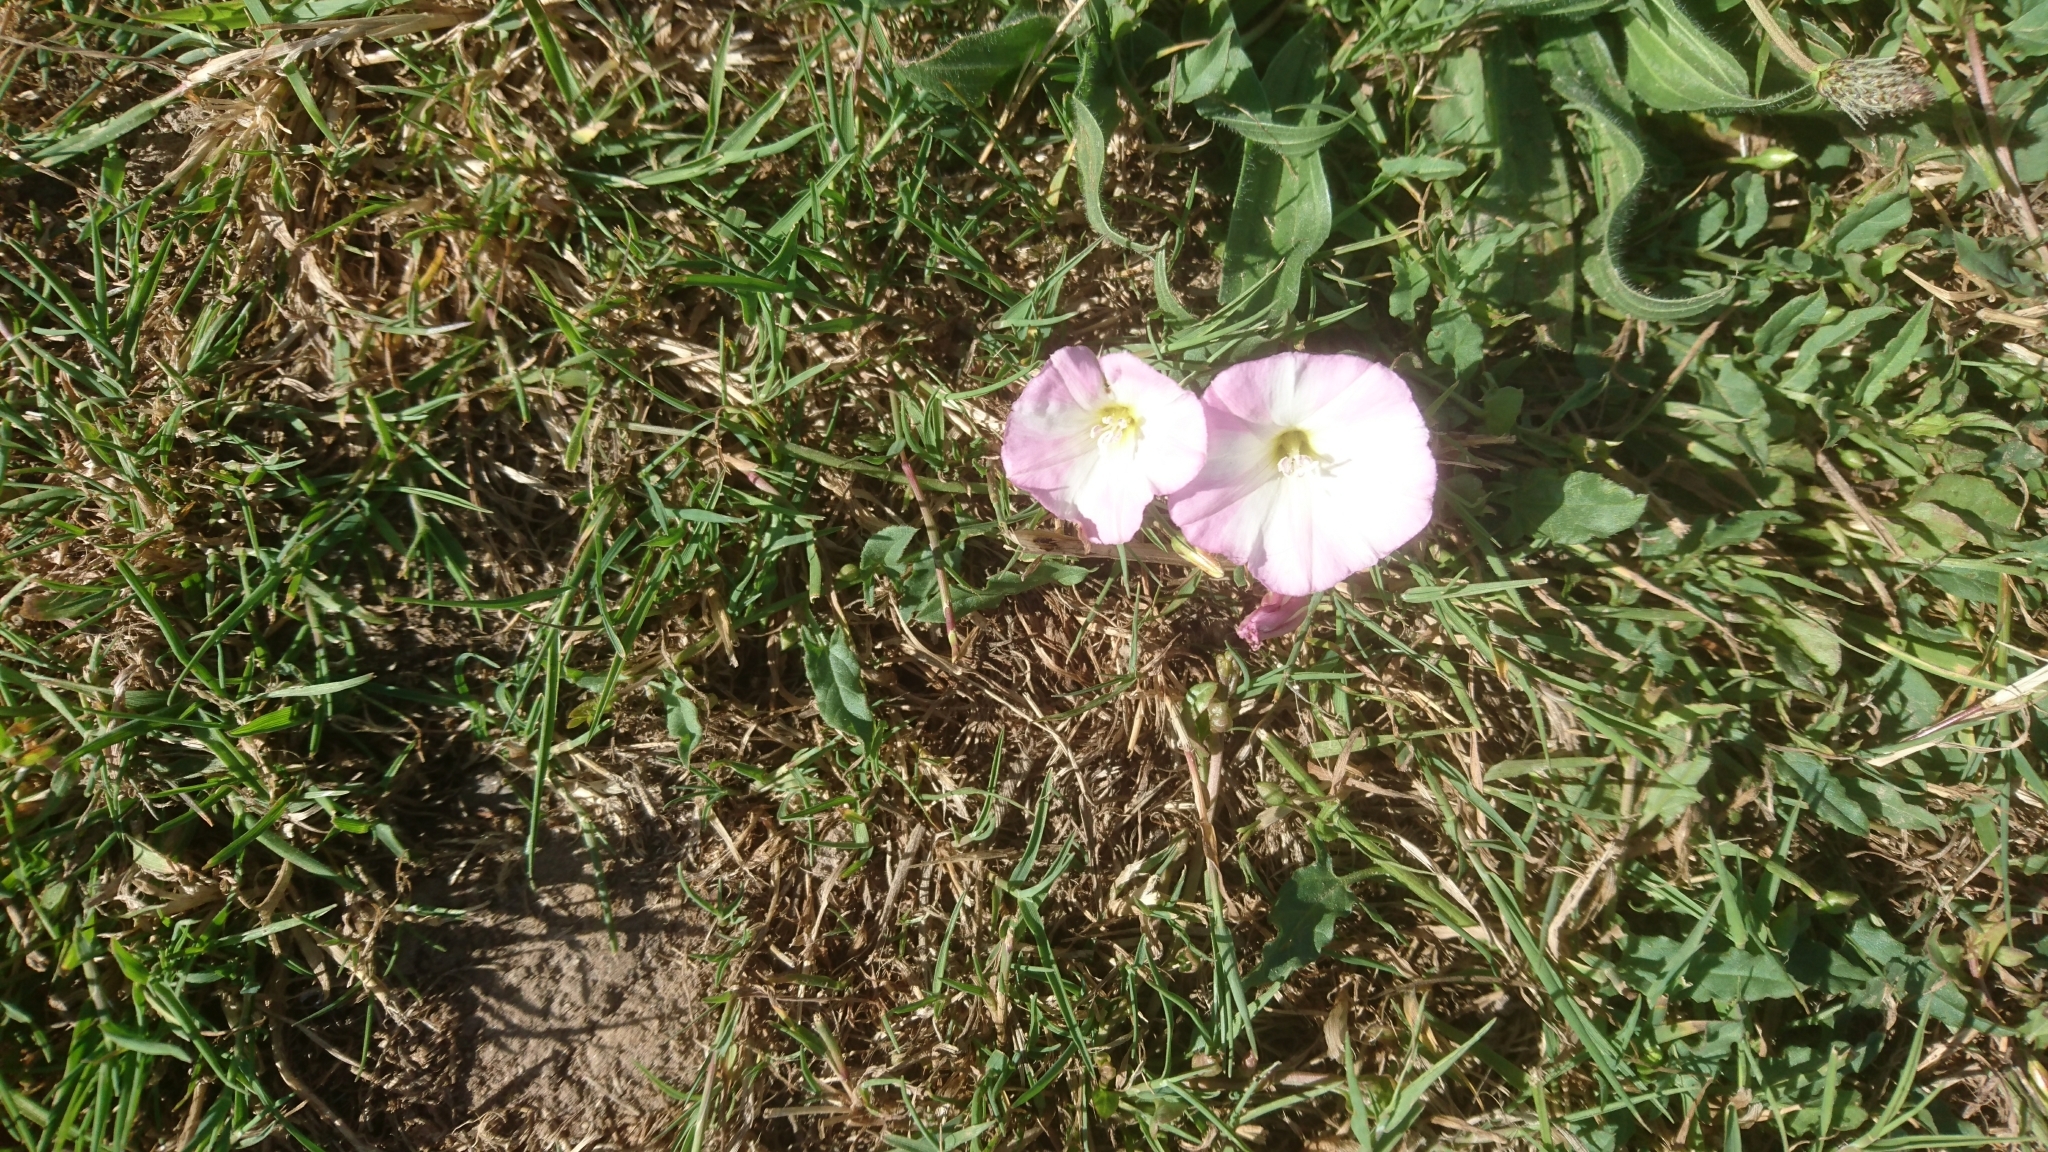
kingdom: Plantae
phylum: Tracheophyta
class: Magnoliopsida
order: Solanales
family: Convolvulaceae
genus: Convolvulus
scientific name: Convolvulus arvensis
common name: Field bindweed
